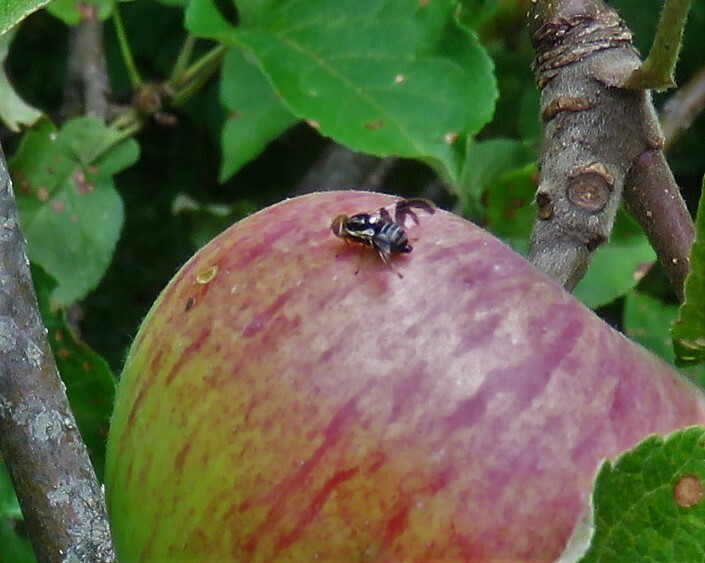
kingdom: Animalia
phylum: Arthropoda
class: Insecta
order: Diptera
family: Tephritidae
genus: Rhagoletis
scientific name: Rhagoletis pomonella
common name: Apple maggot
